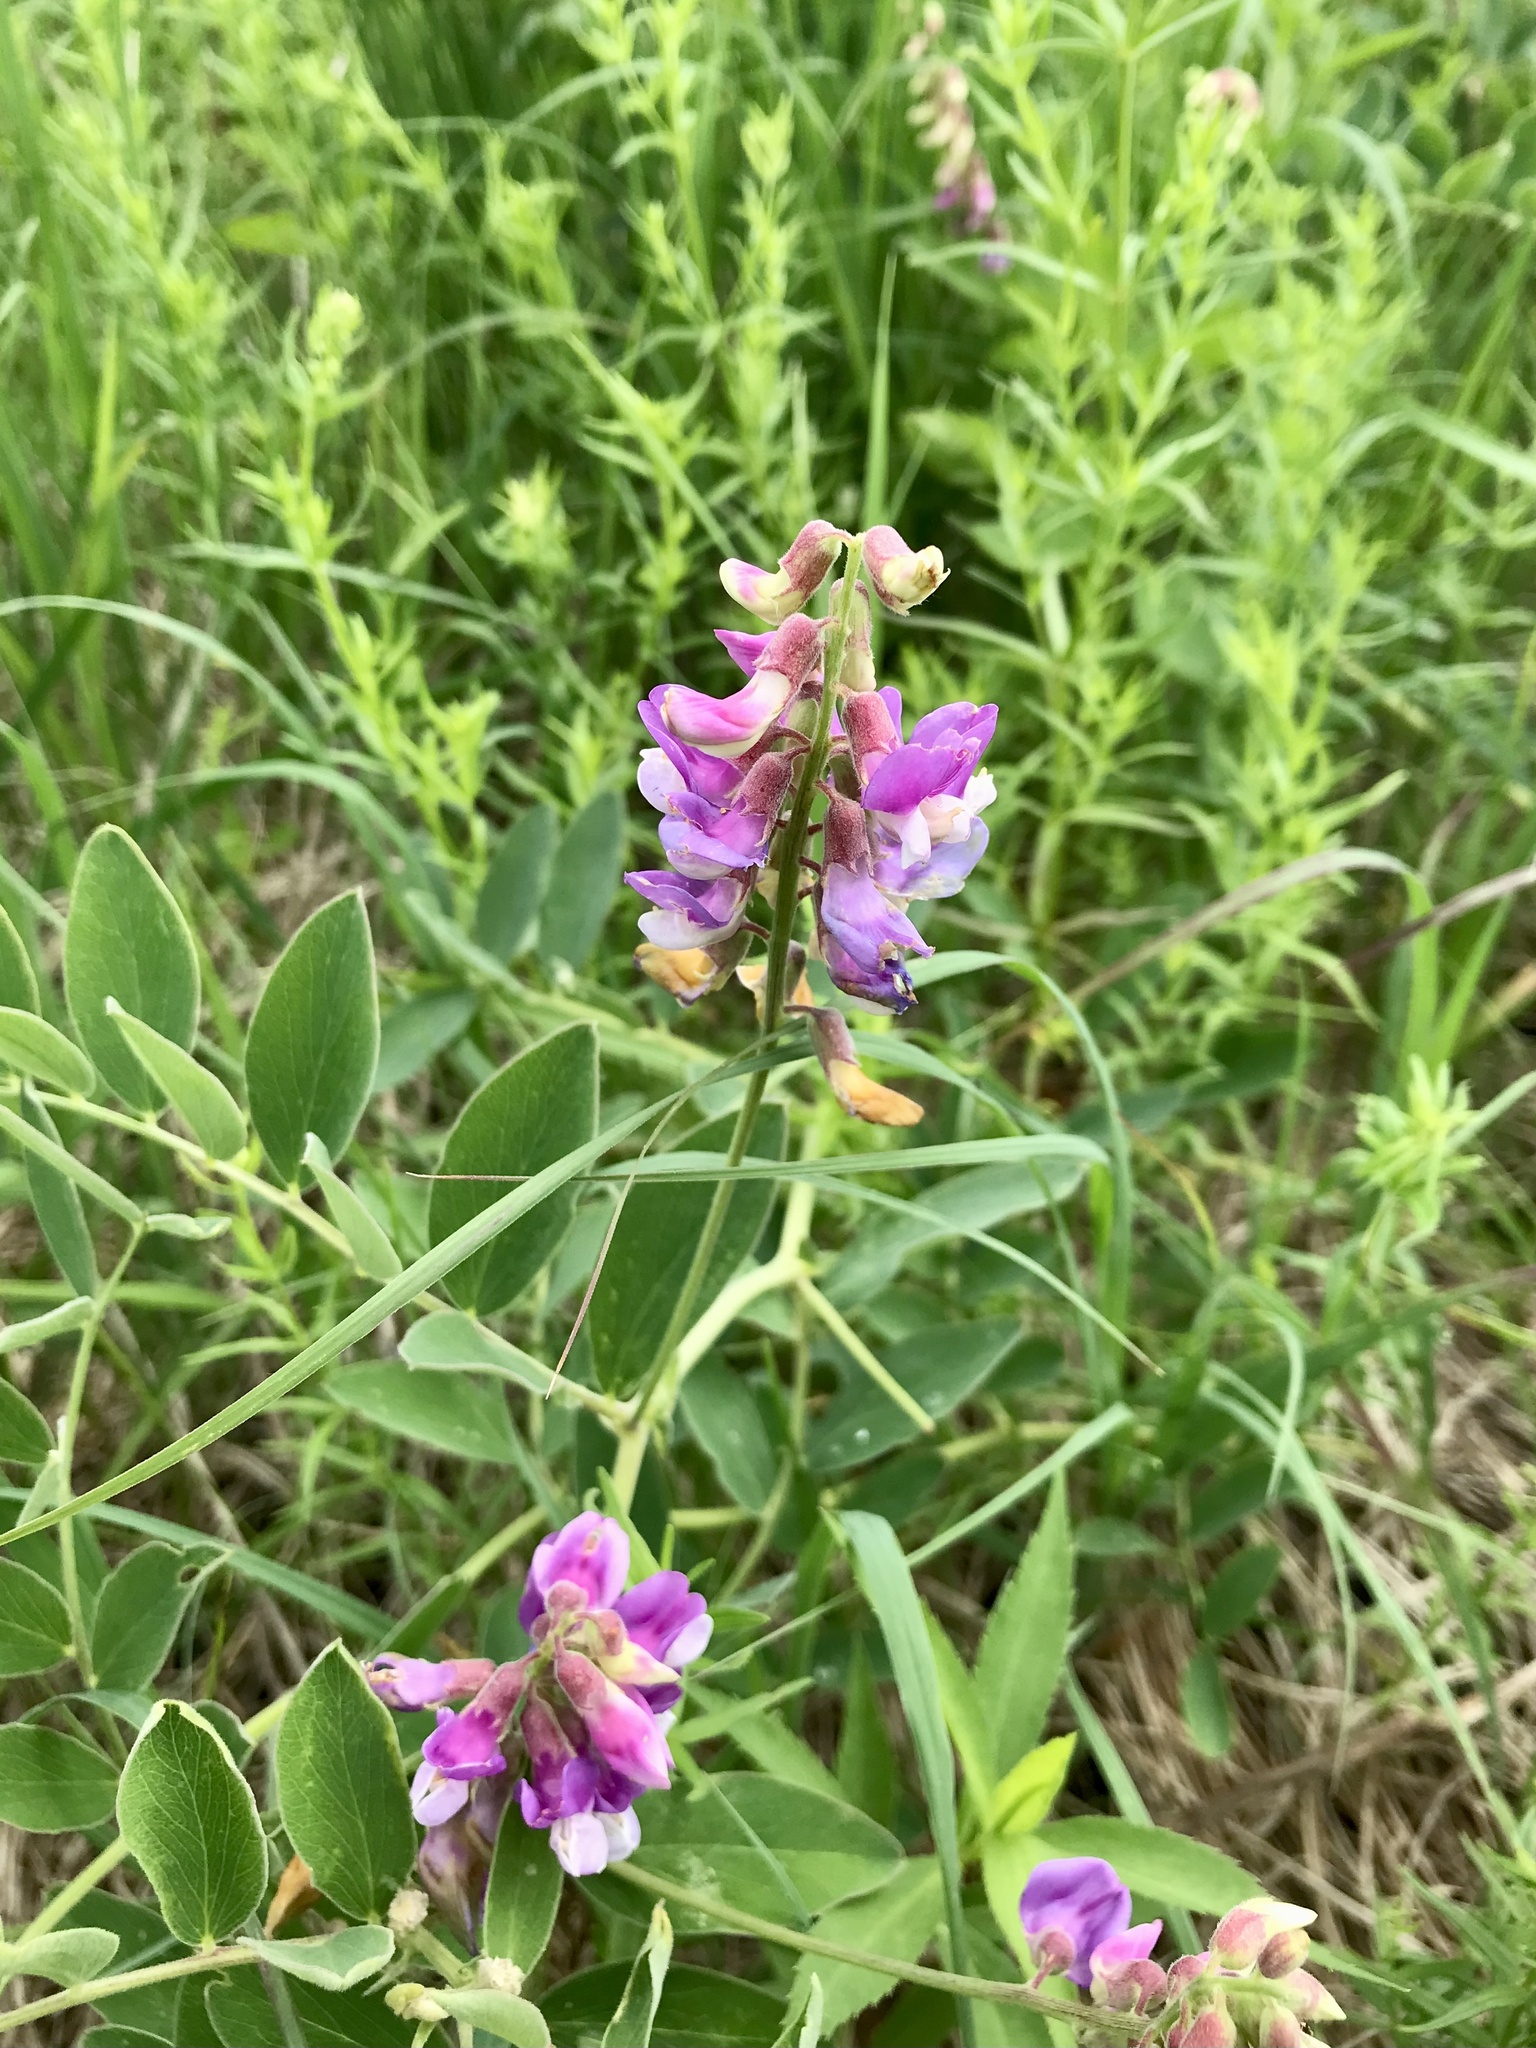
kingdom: Plantae
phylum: Tracheophyta
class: Magnoliopsida
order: Fabales
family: Fabaceae
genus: Lathyrus
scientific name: Lathyrus venosus
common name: Forest-pea
